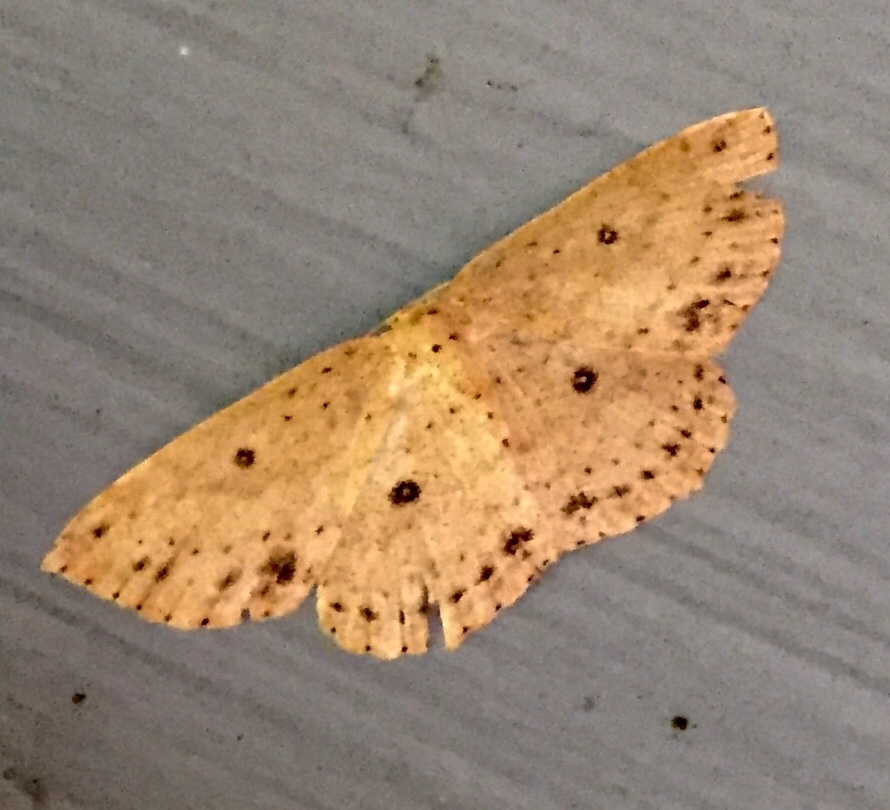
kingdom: Animalia
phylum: Arthropoda
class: Insecta
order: Lepidoptera
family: Geometridae
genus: Cyclophora
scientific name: Cyclophora myrtaria
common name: Waxmyrtle wave moth
